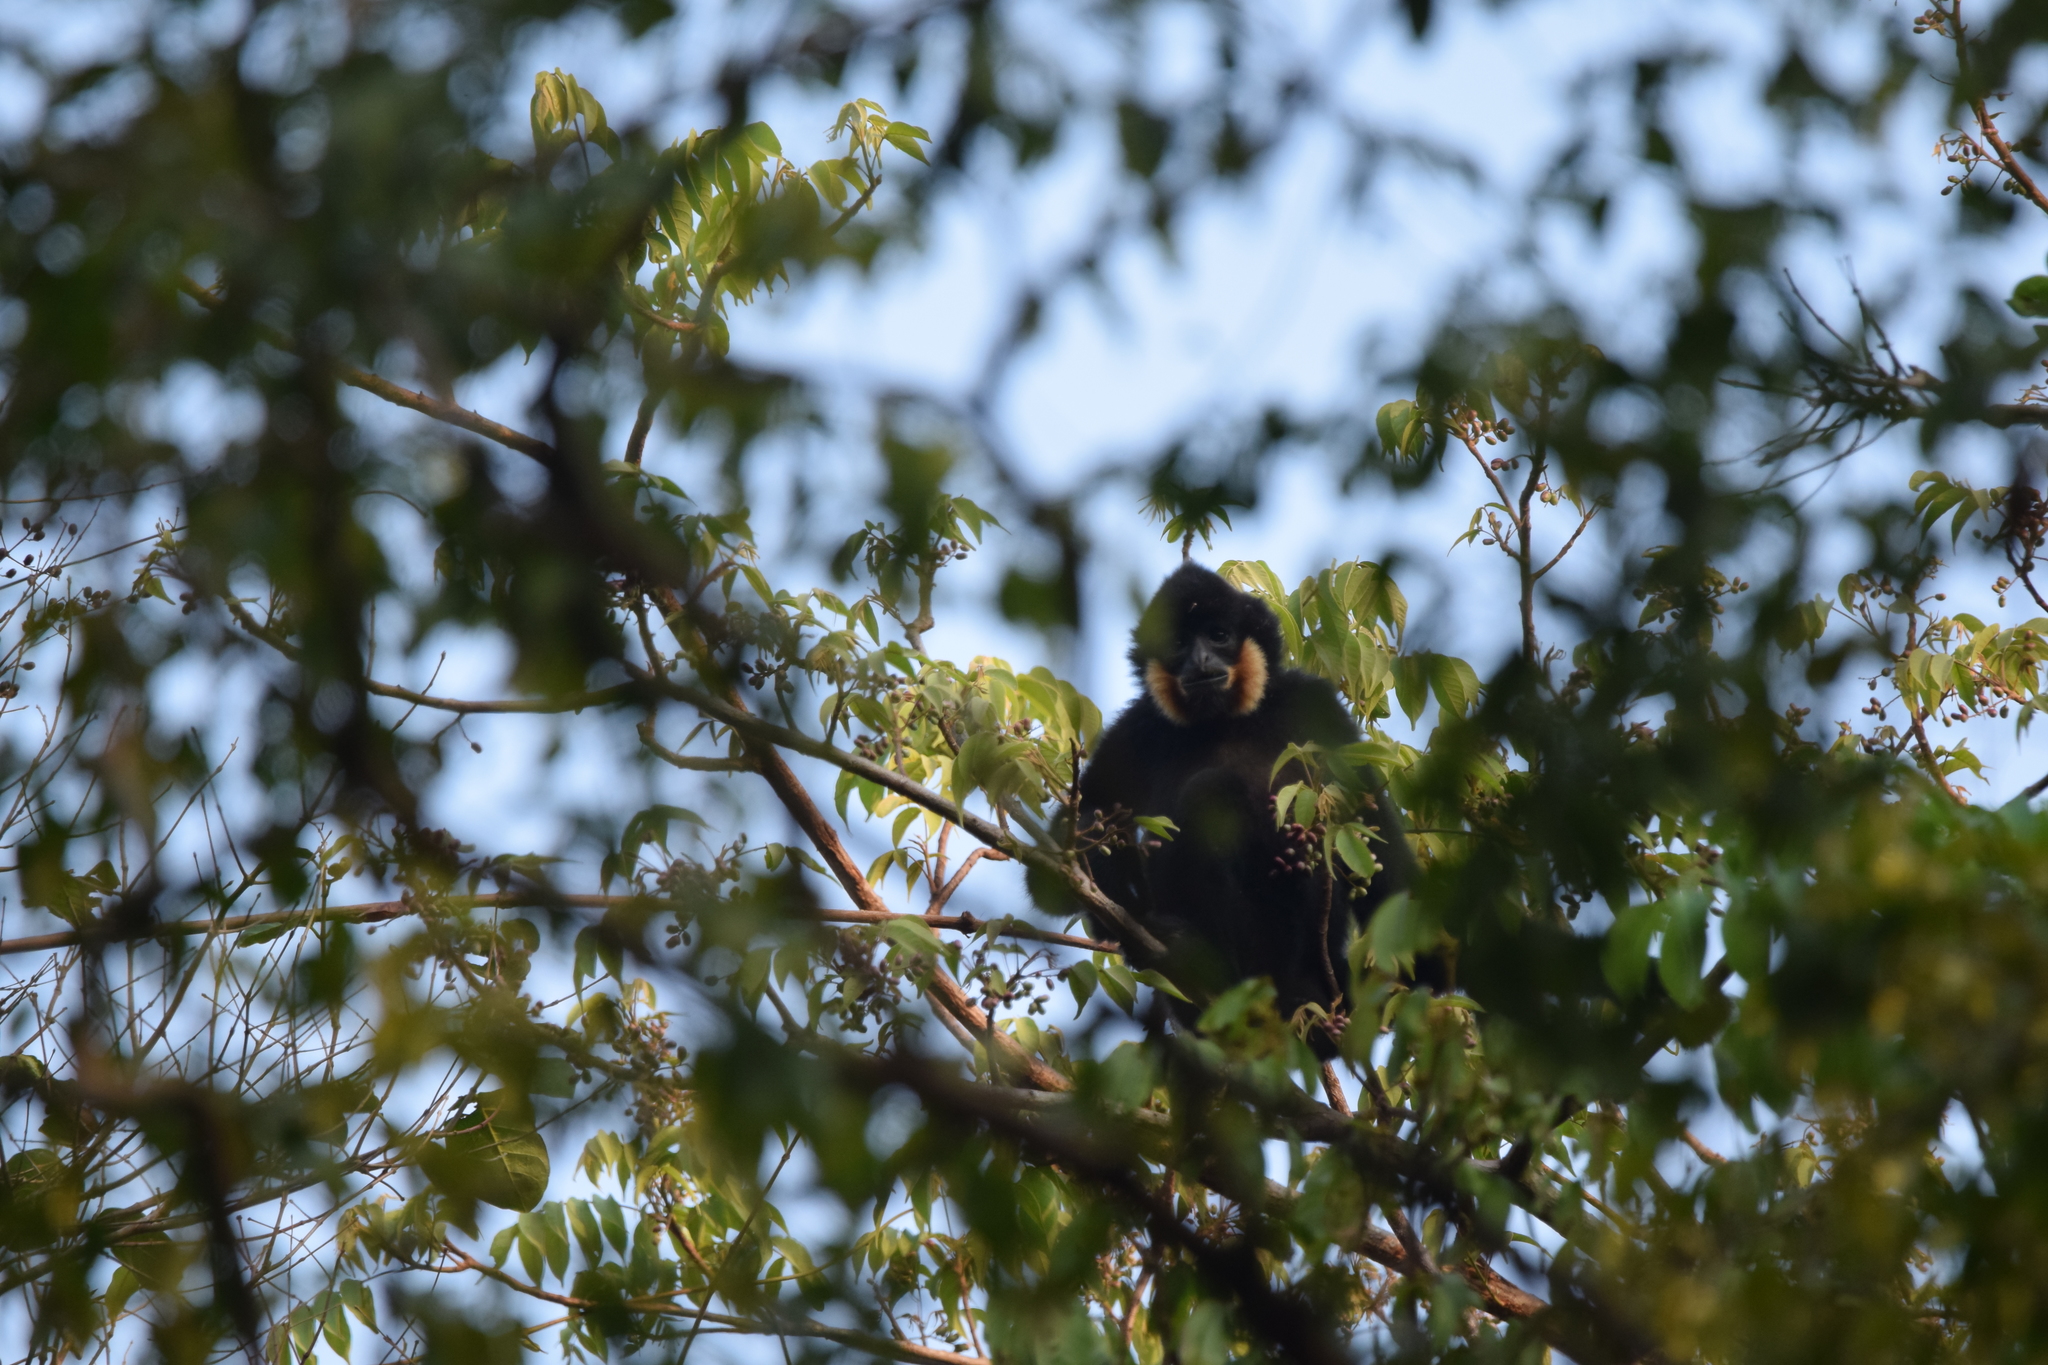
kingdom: Animalia
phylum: Chordata
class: Mammalia
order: Primates
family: Hylobatidae
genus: Nomascus
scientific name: Nomascus gabriellae
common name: Red-cheeked gibbon
